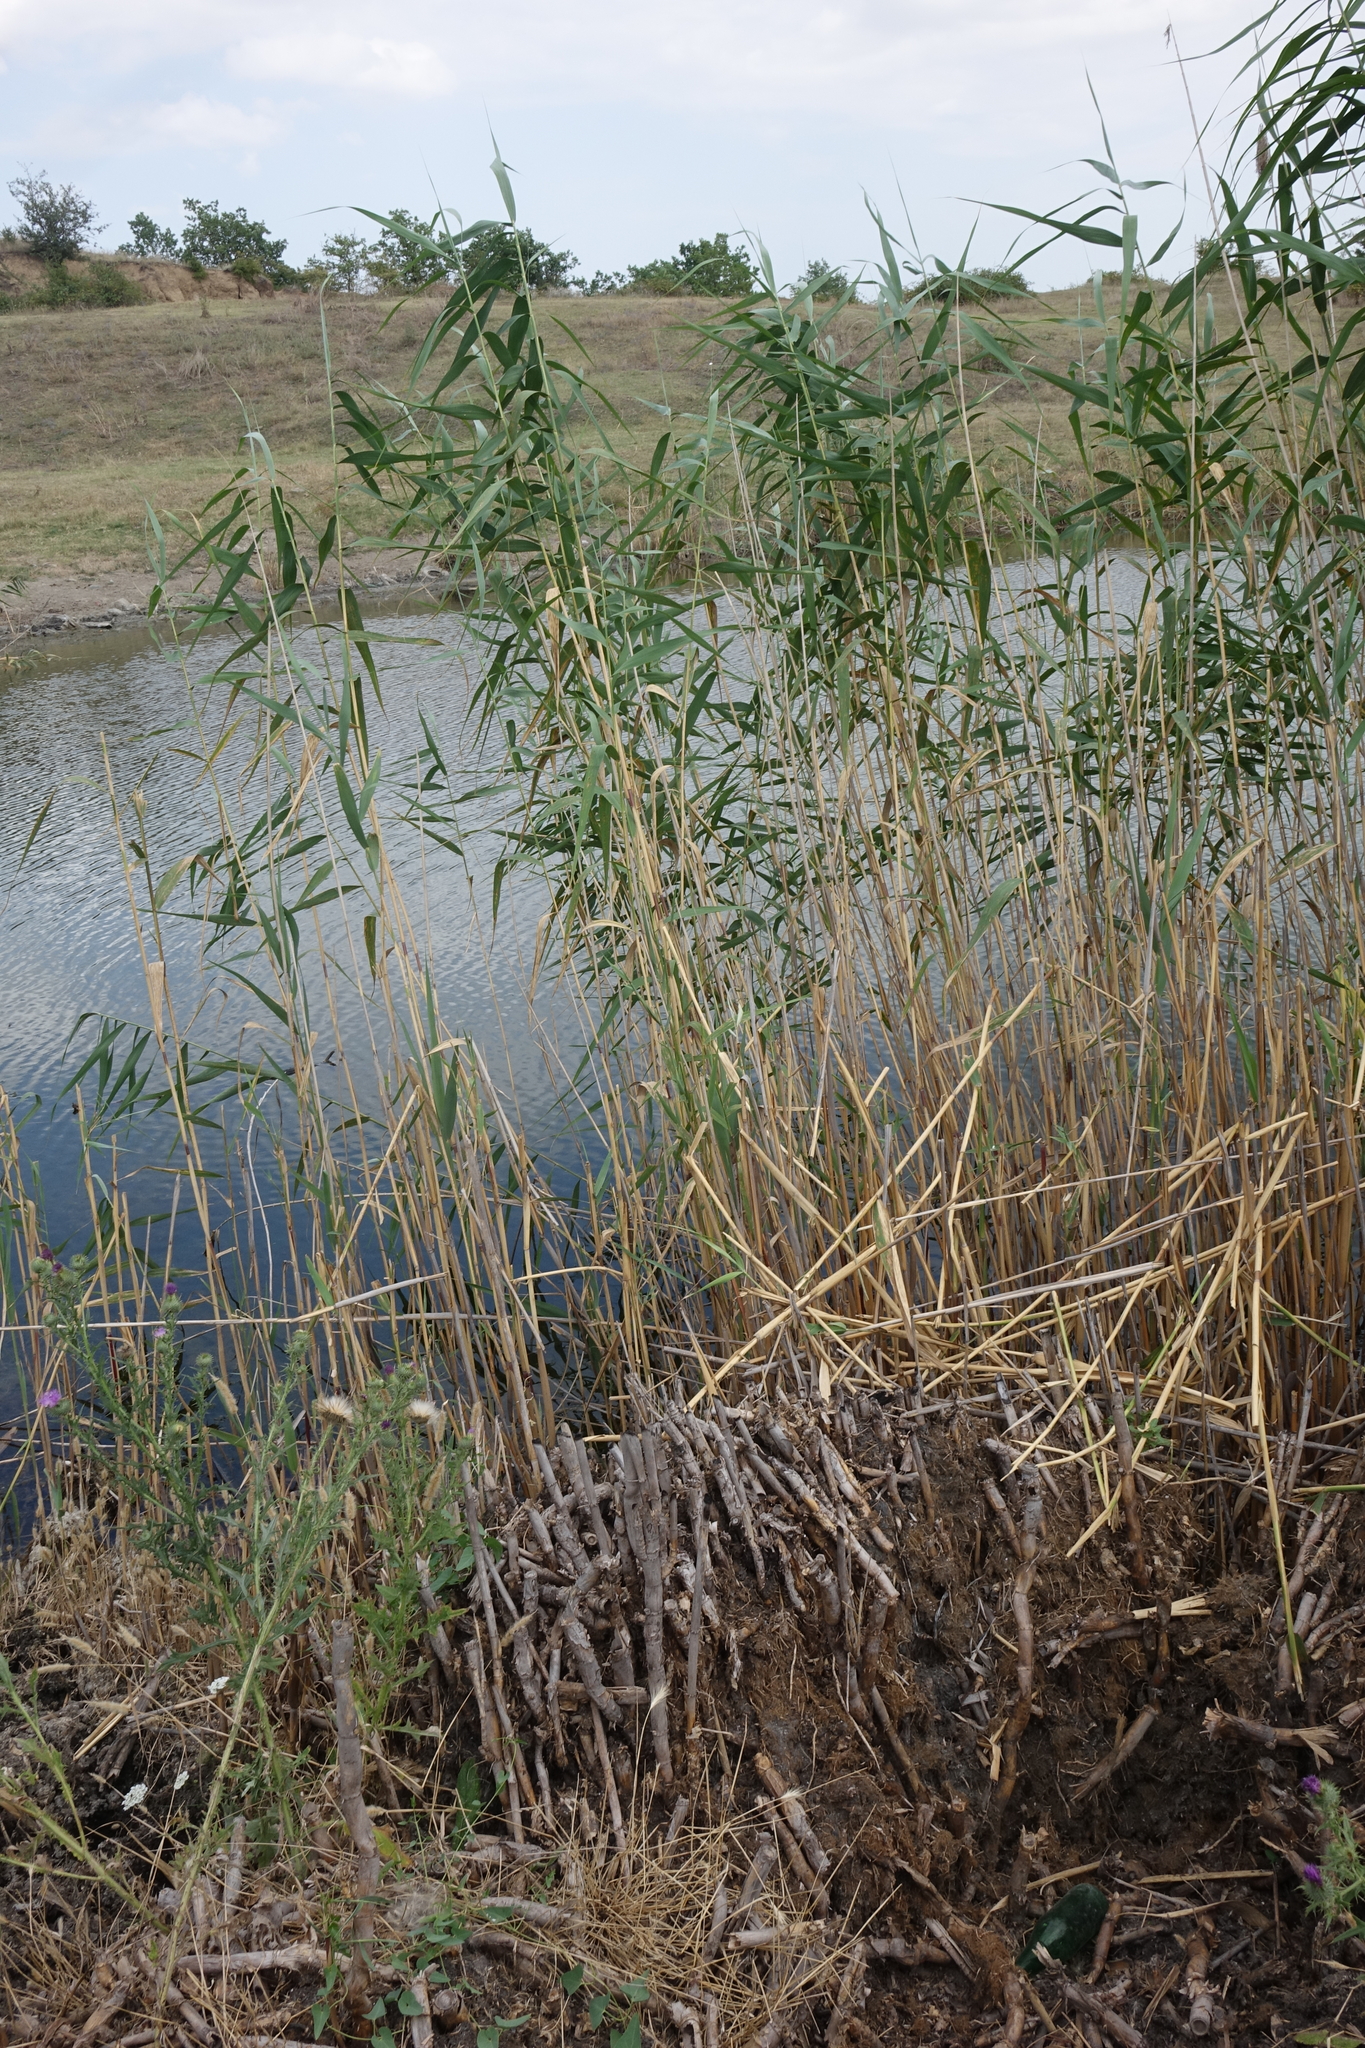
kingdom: Plantae
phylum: Tracheophyta
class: Liliopsida
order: Poales
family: Poaceae
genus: Phragmites
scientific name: Phragmites australis
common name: Common reed
